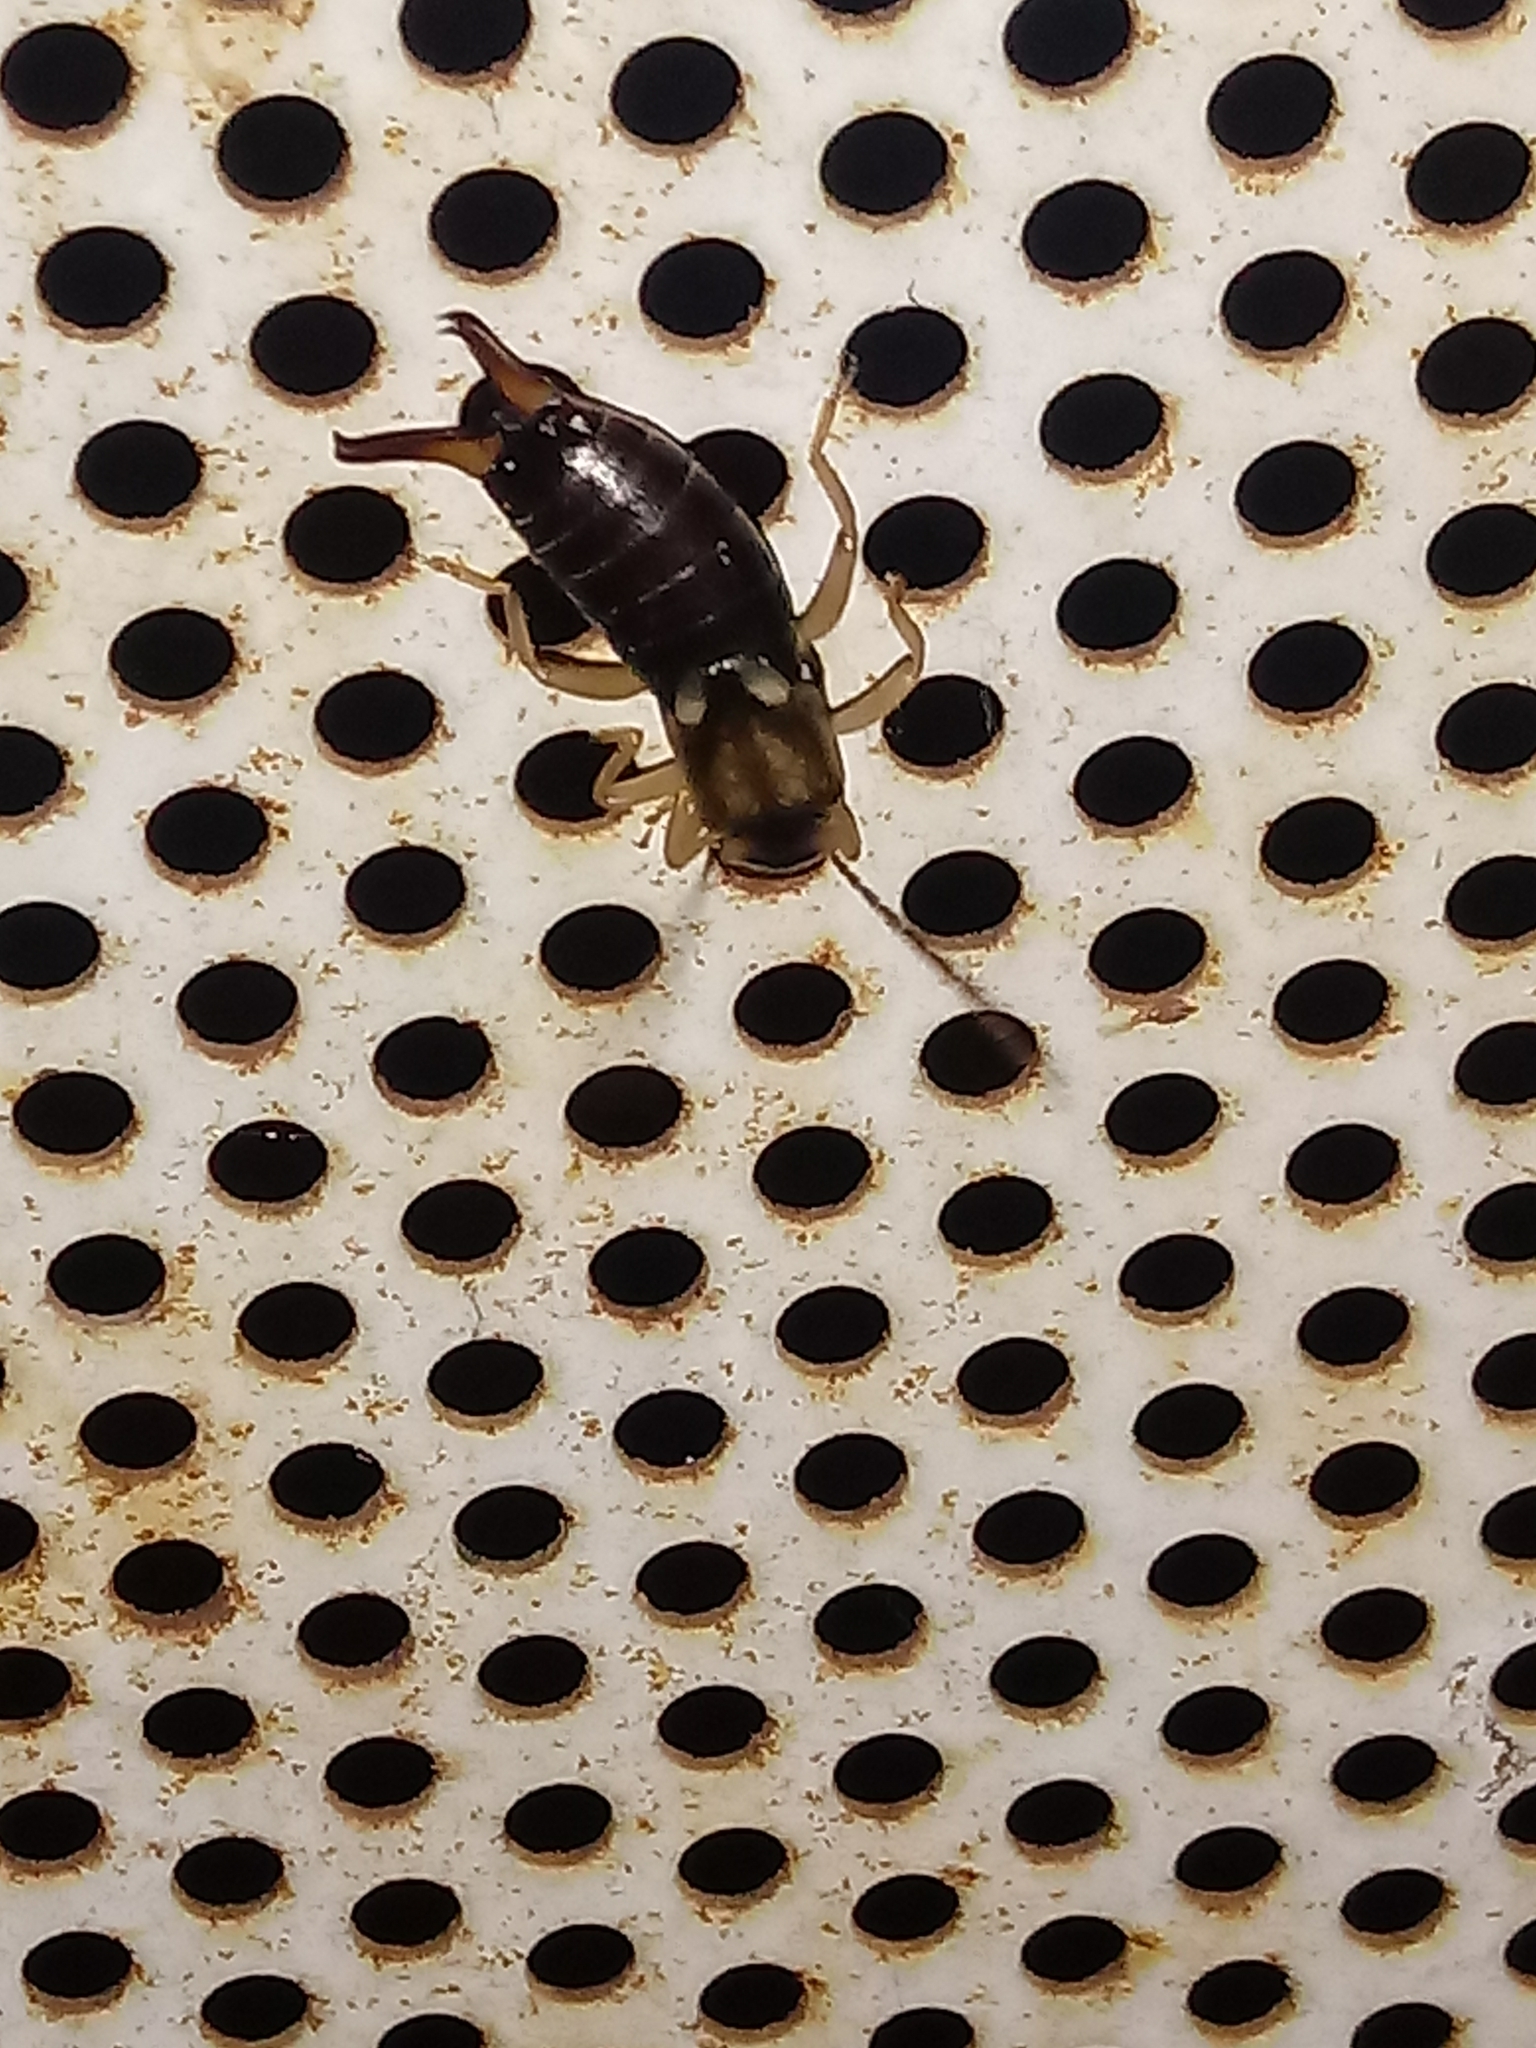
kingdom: Animalia
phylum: Arthropoda
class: Insecta
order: Dermaptera
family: Forficulidae
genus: Forficula
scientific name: Forficula
